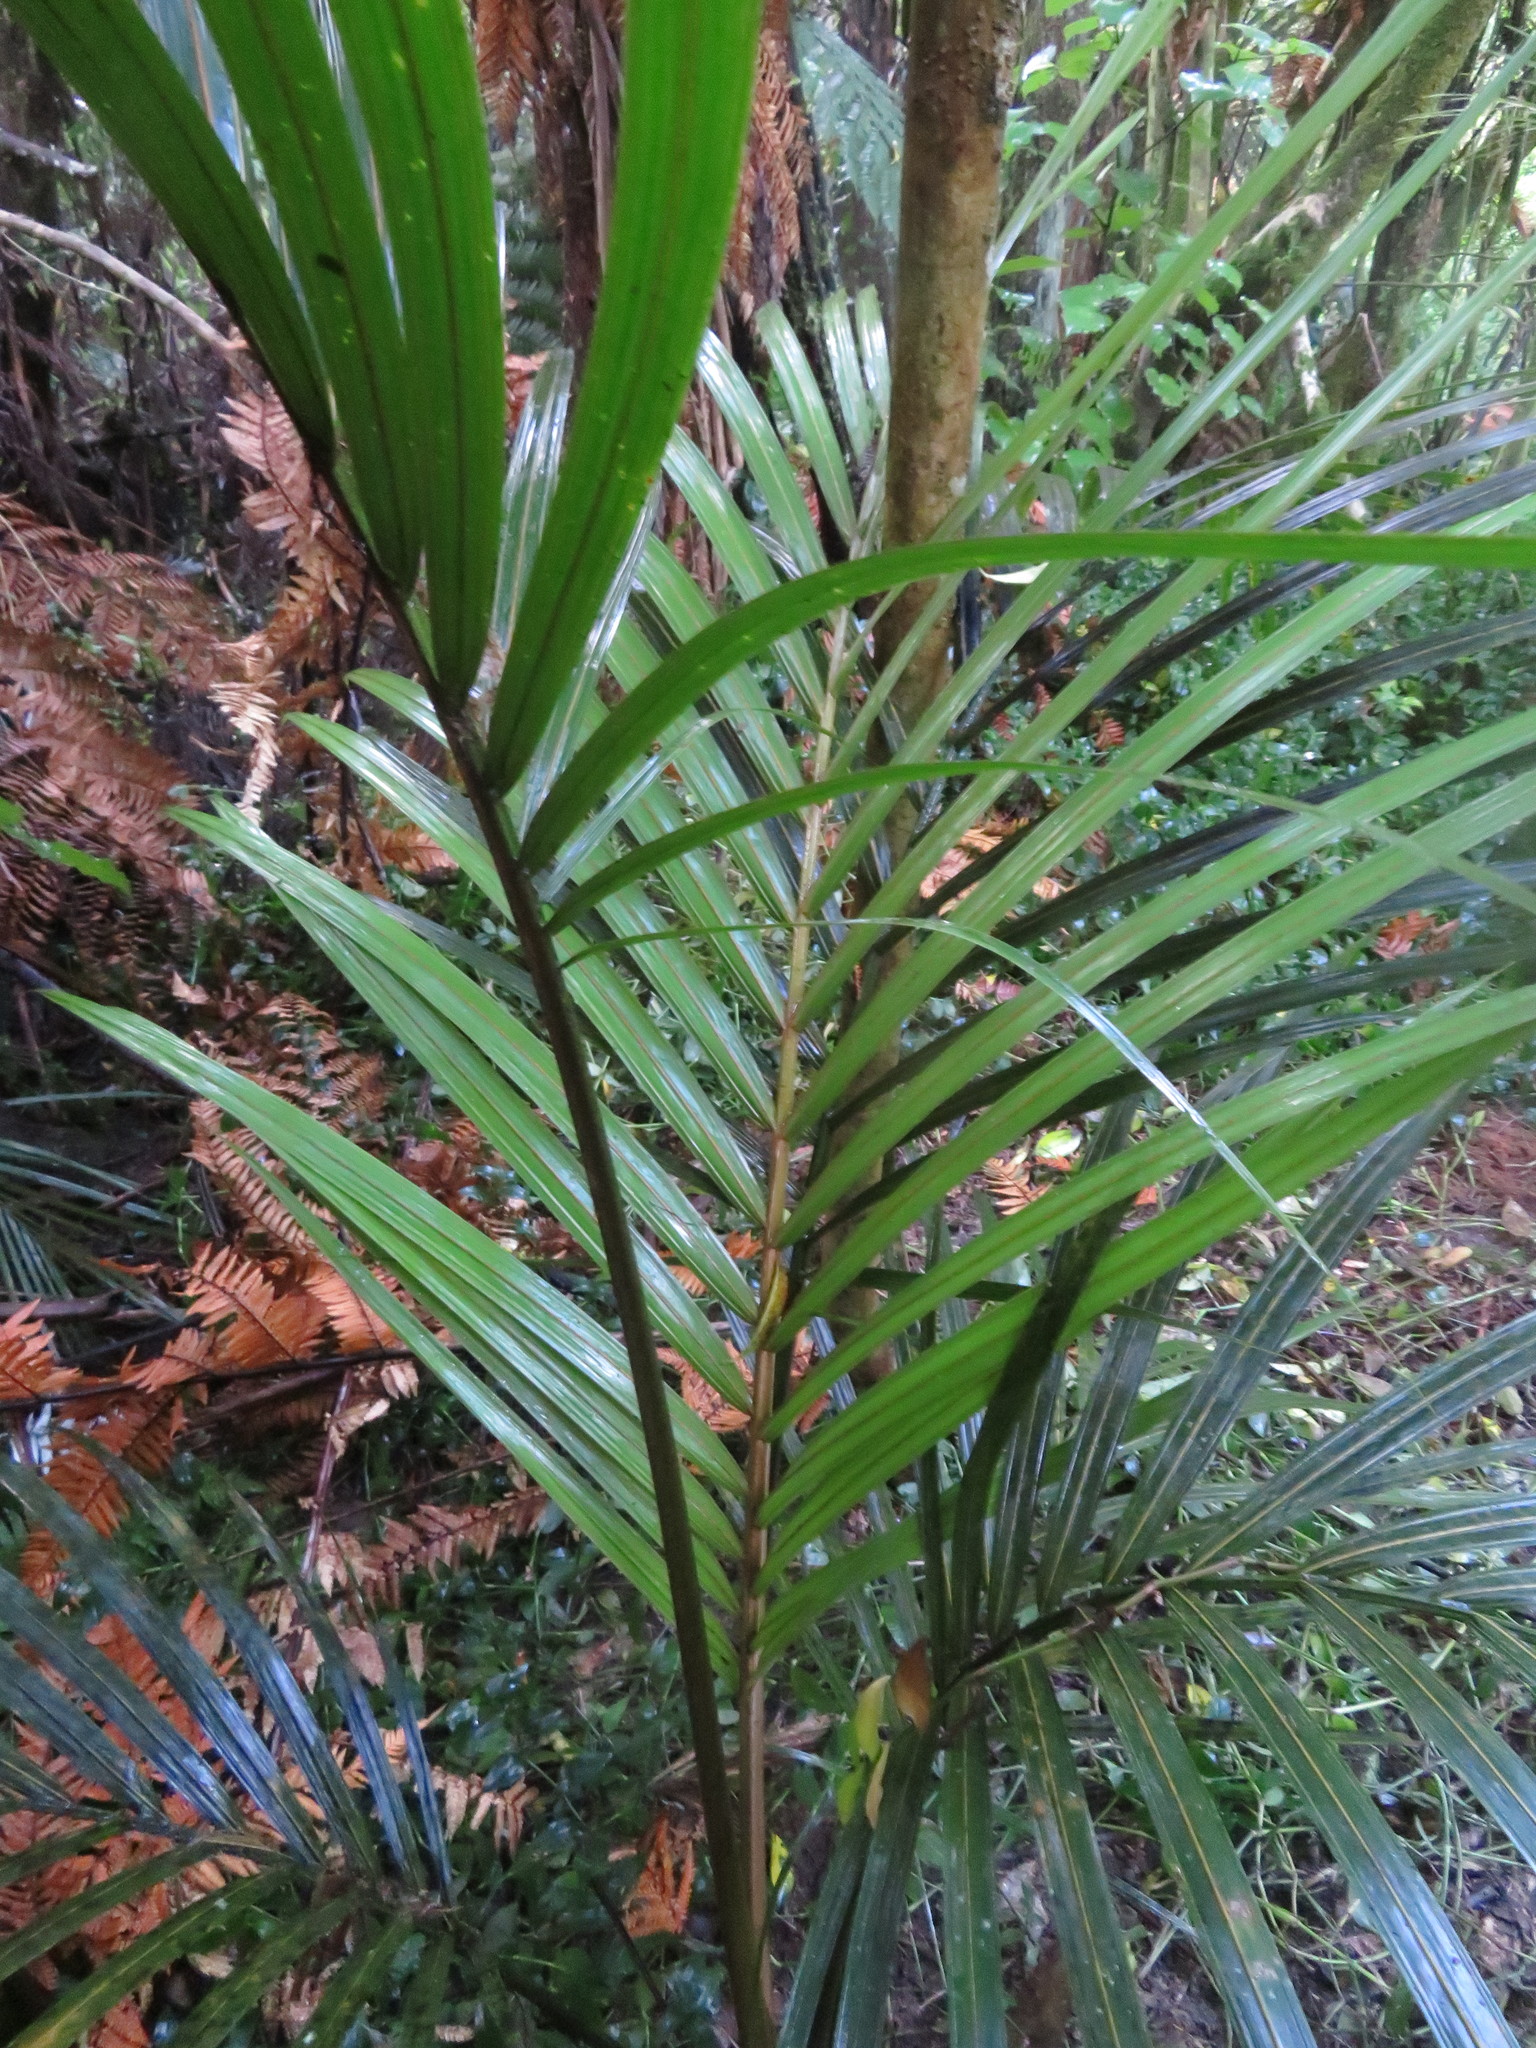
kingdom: Plantae
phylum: Tracheophyta
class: Liliopsida
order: Arecales
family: Arecaceae
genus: Rhopalostylis
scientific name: Rhopalostylis sapida
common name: Feather-duster palm
